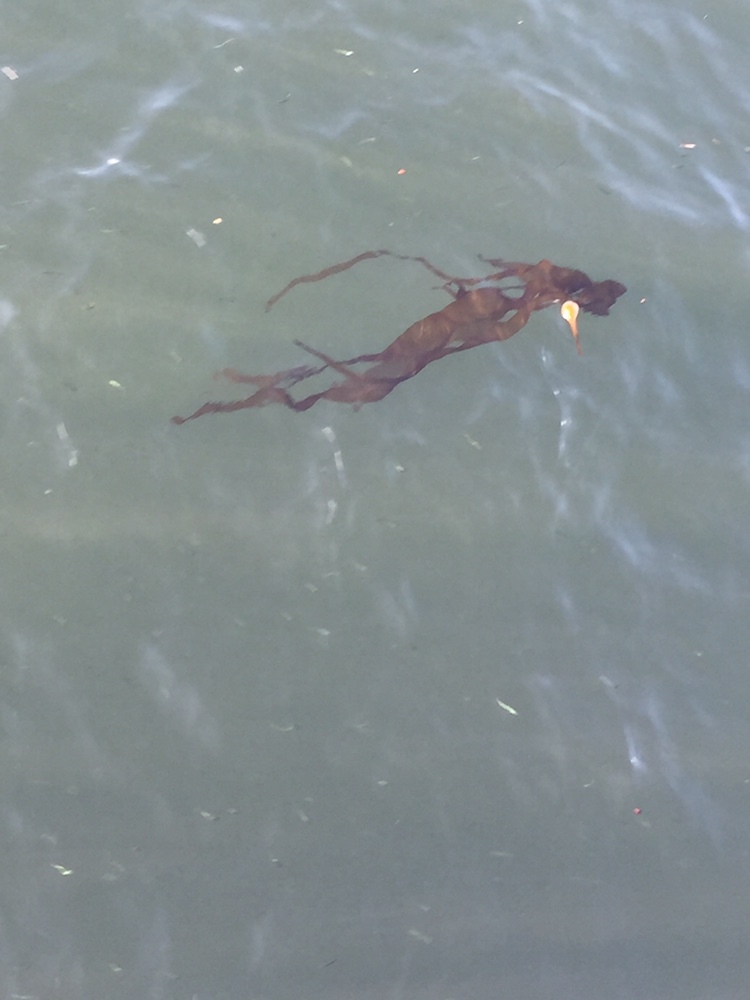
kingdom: Chromista
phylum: Ochrophyta
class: Phaeophyceae
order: Laminariales
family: Laminariaceae
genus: Nereocystis
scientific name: Nereocystis luetkeana
